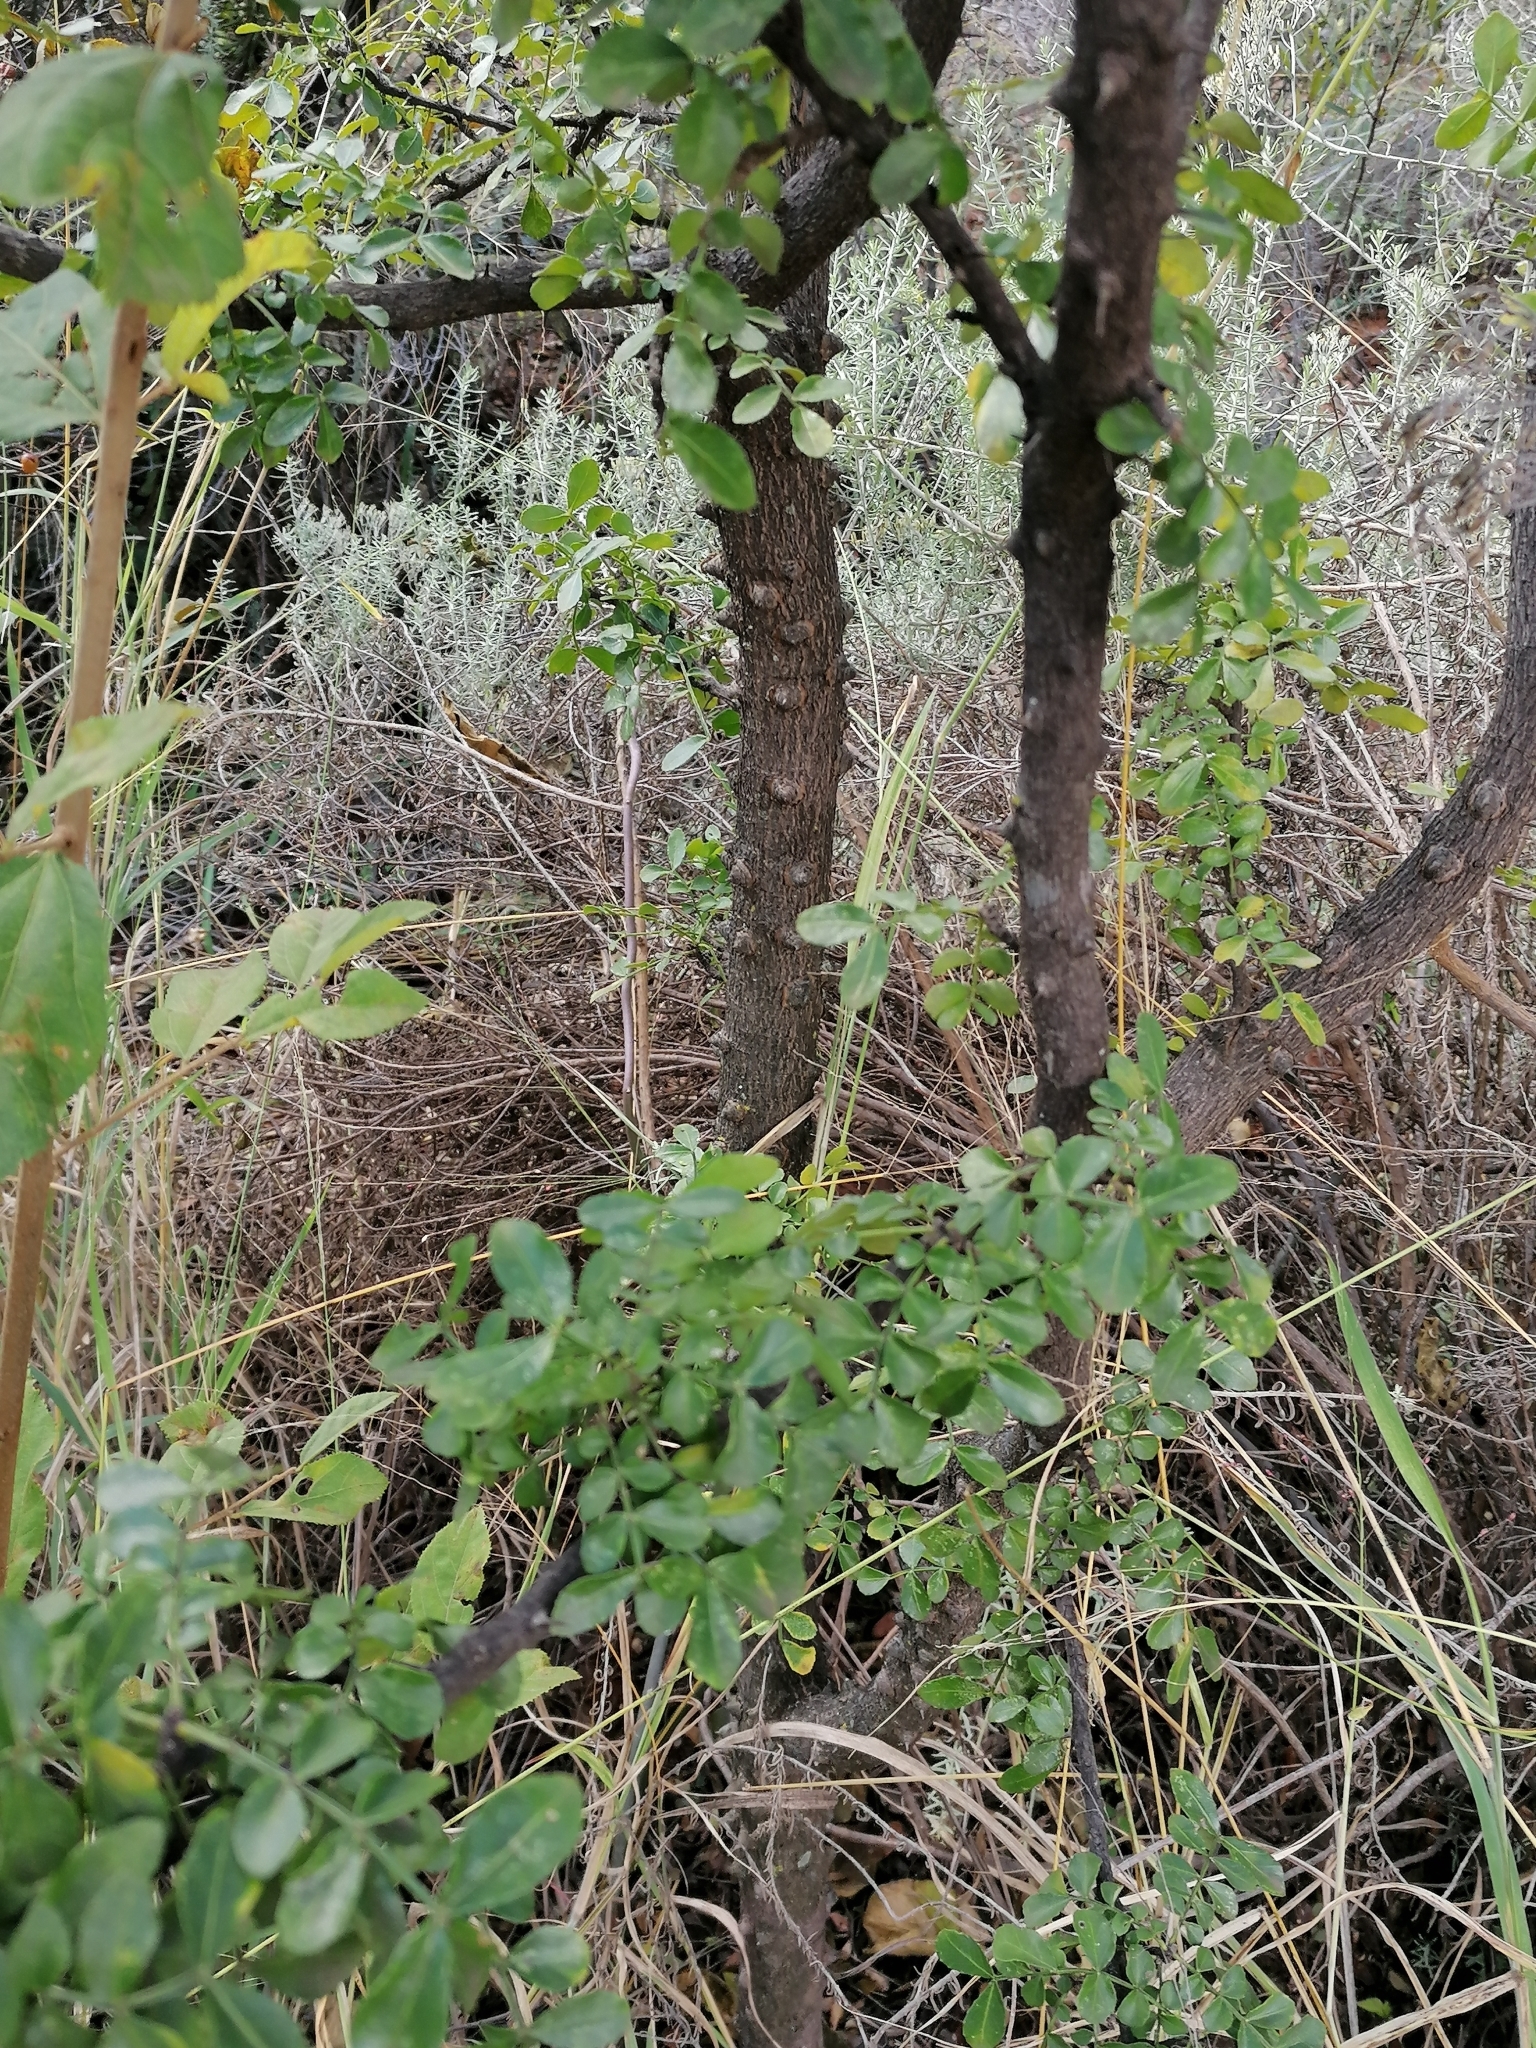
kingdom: Plantae
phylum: Tracheophyta
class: Magnoliopsida
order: Sapindales
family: Rutaceae
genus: Zanthoxylum
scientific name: Zanthoxylum capense
